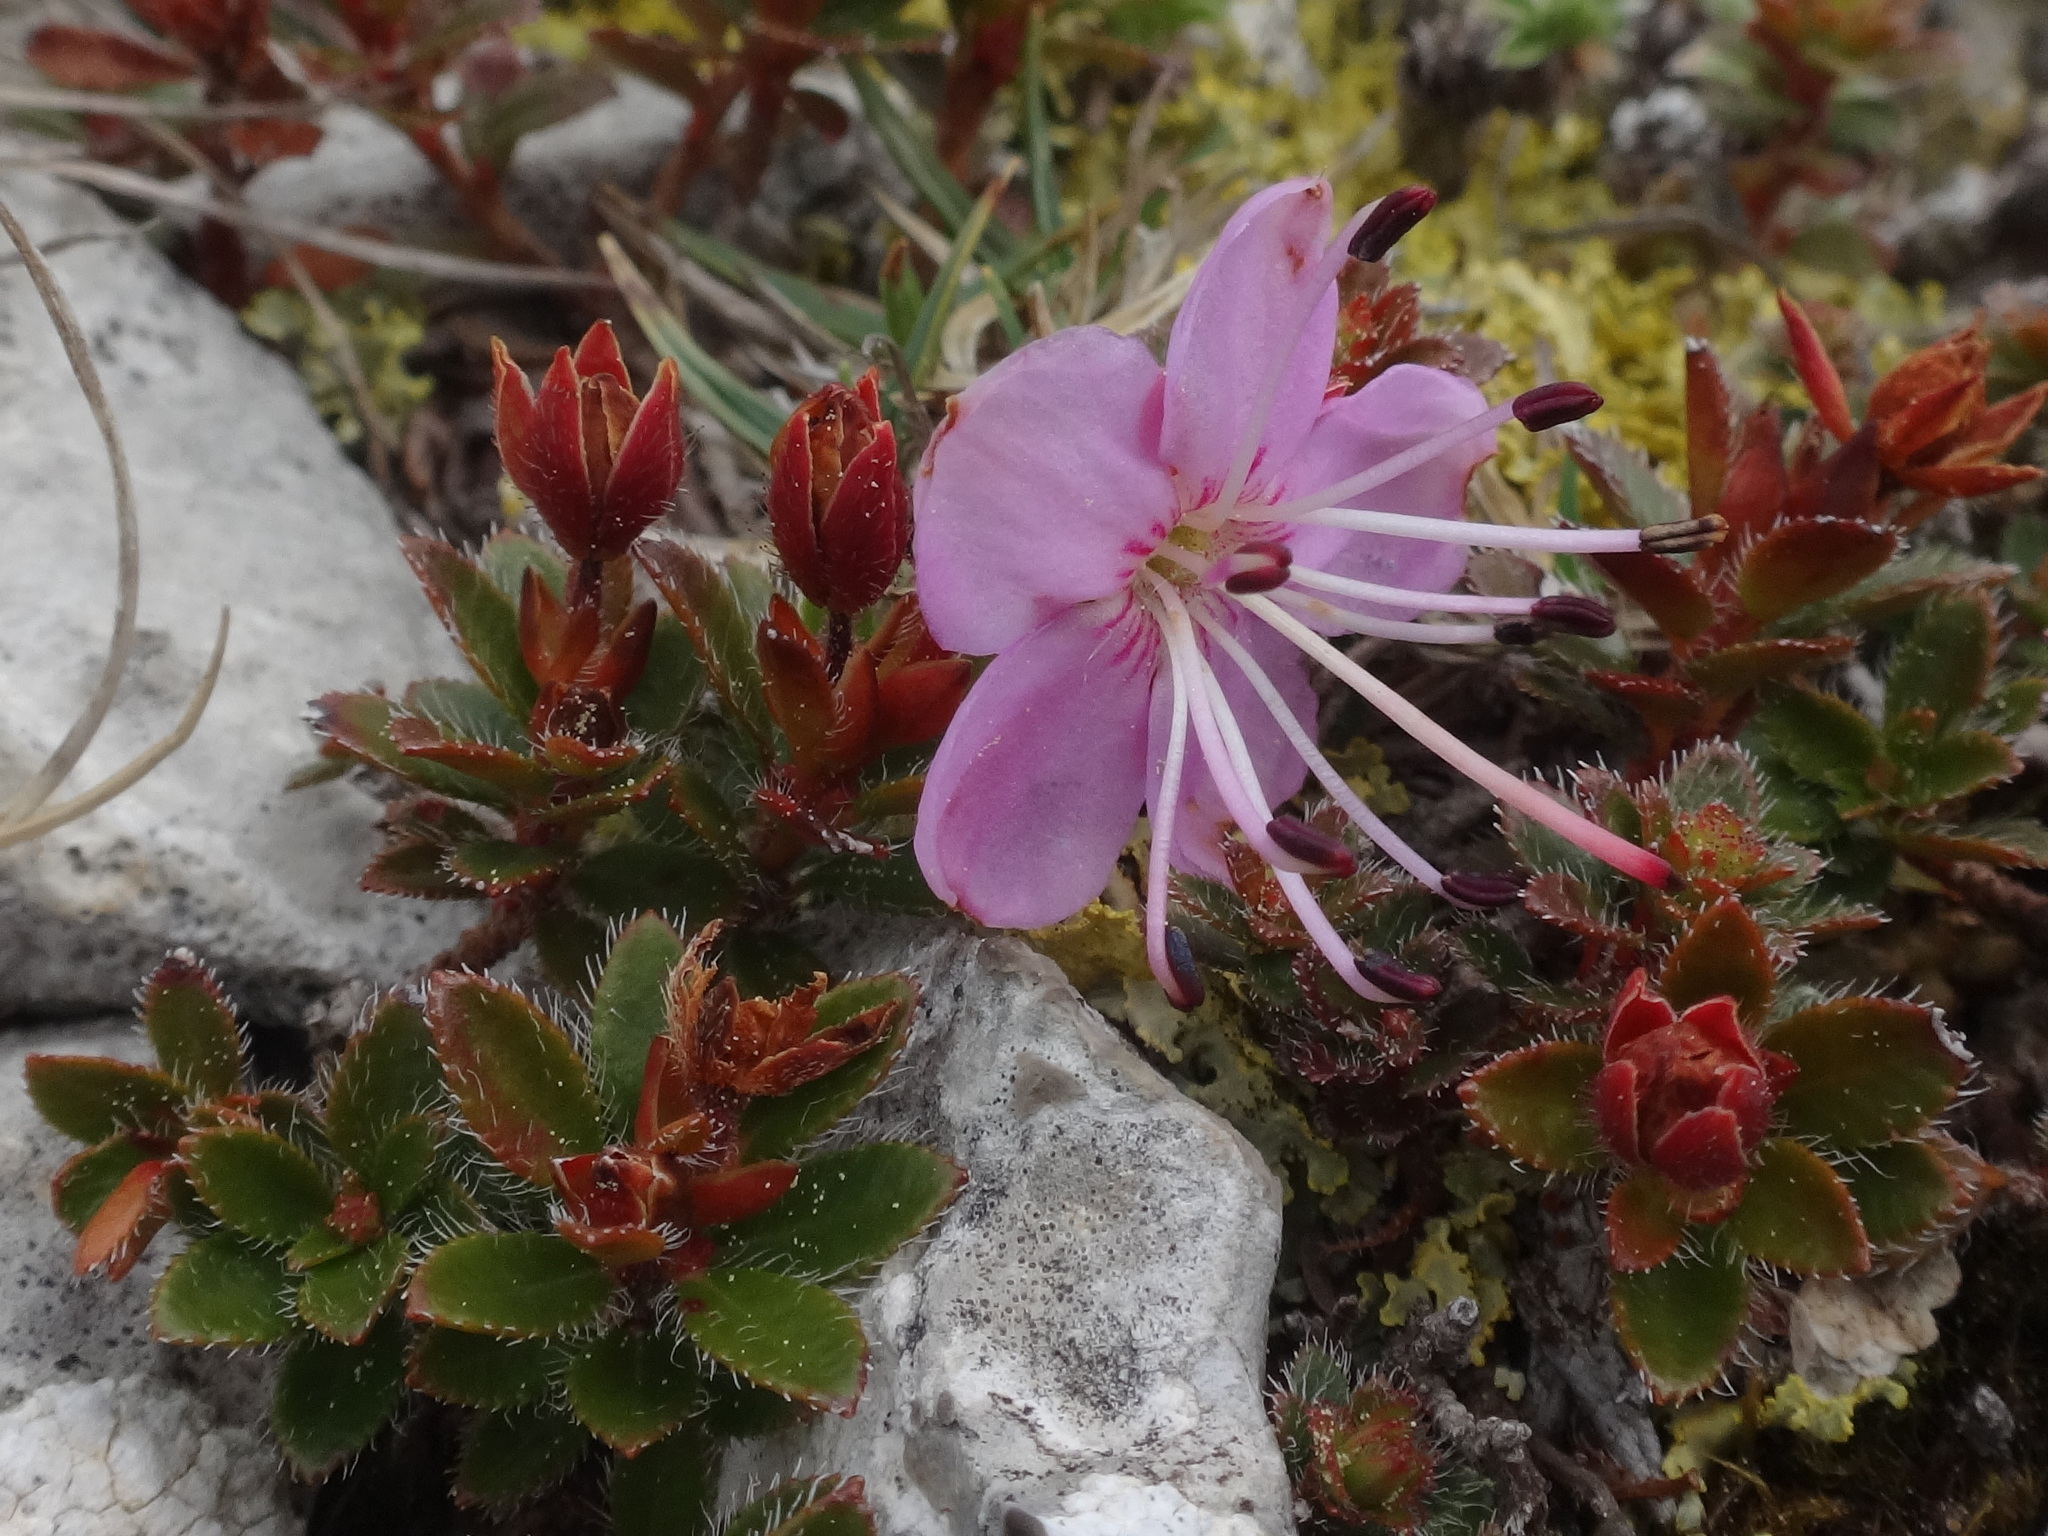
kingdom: Plantae
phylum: Tracheophyta
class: Magnoliopsida
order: Ericales
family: Ericaceae
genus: Rhodothamnus
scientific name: Rhodothamnus chamaecistus
